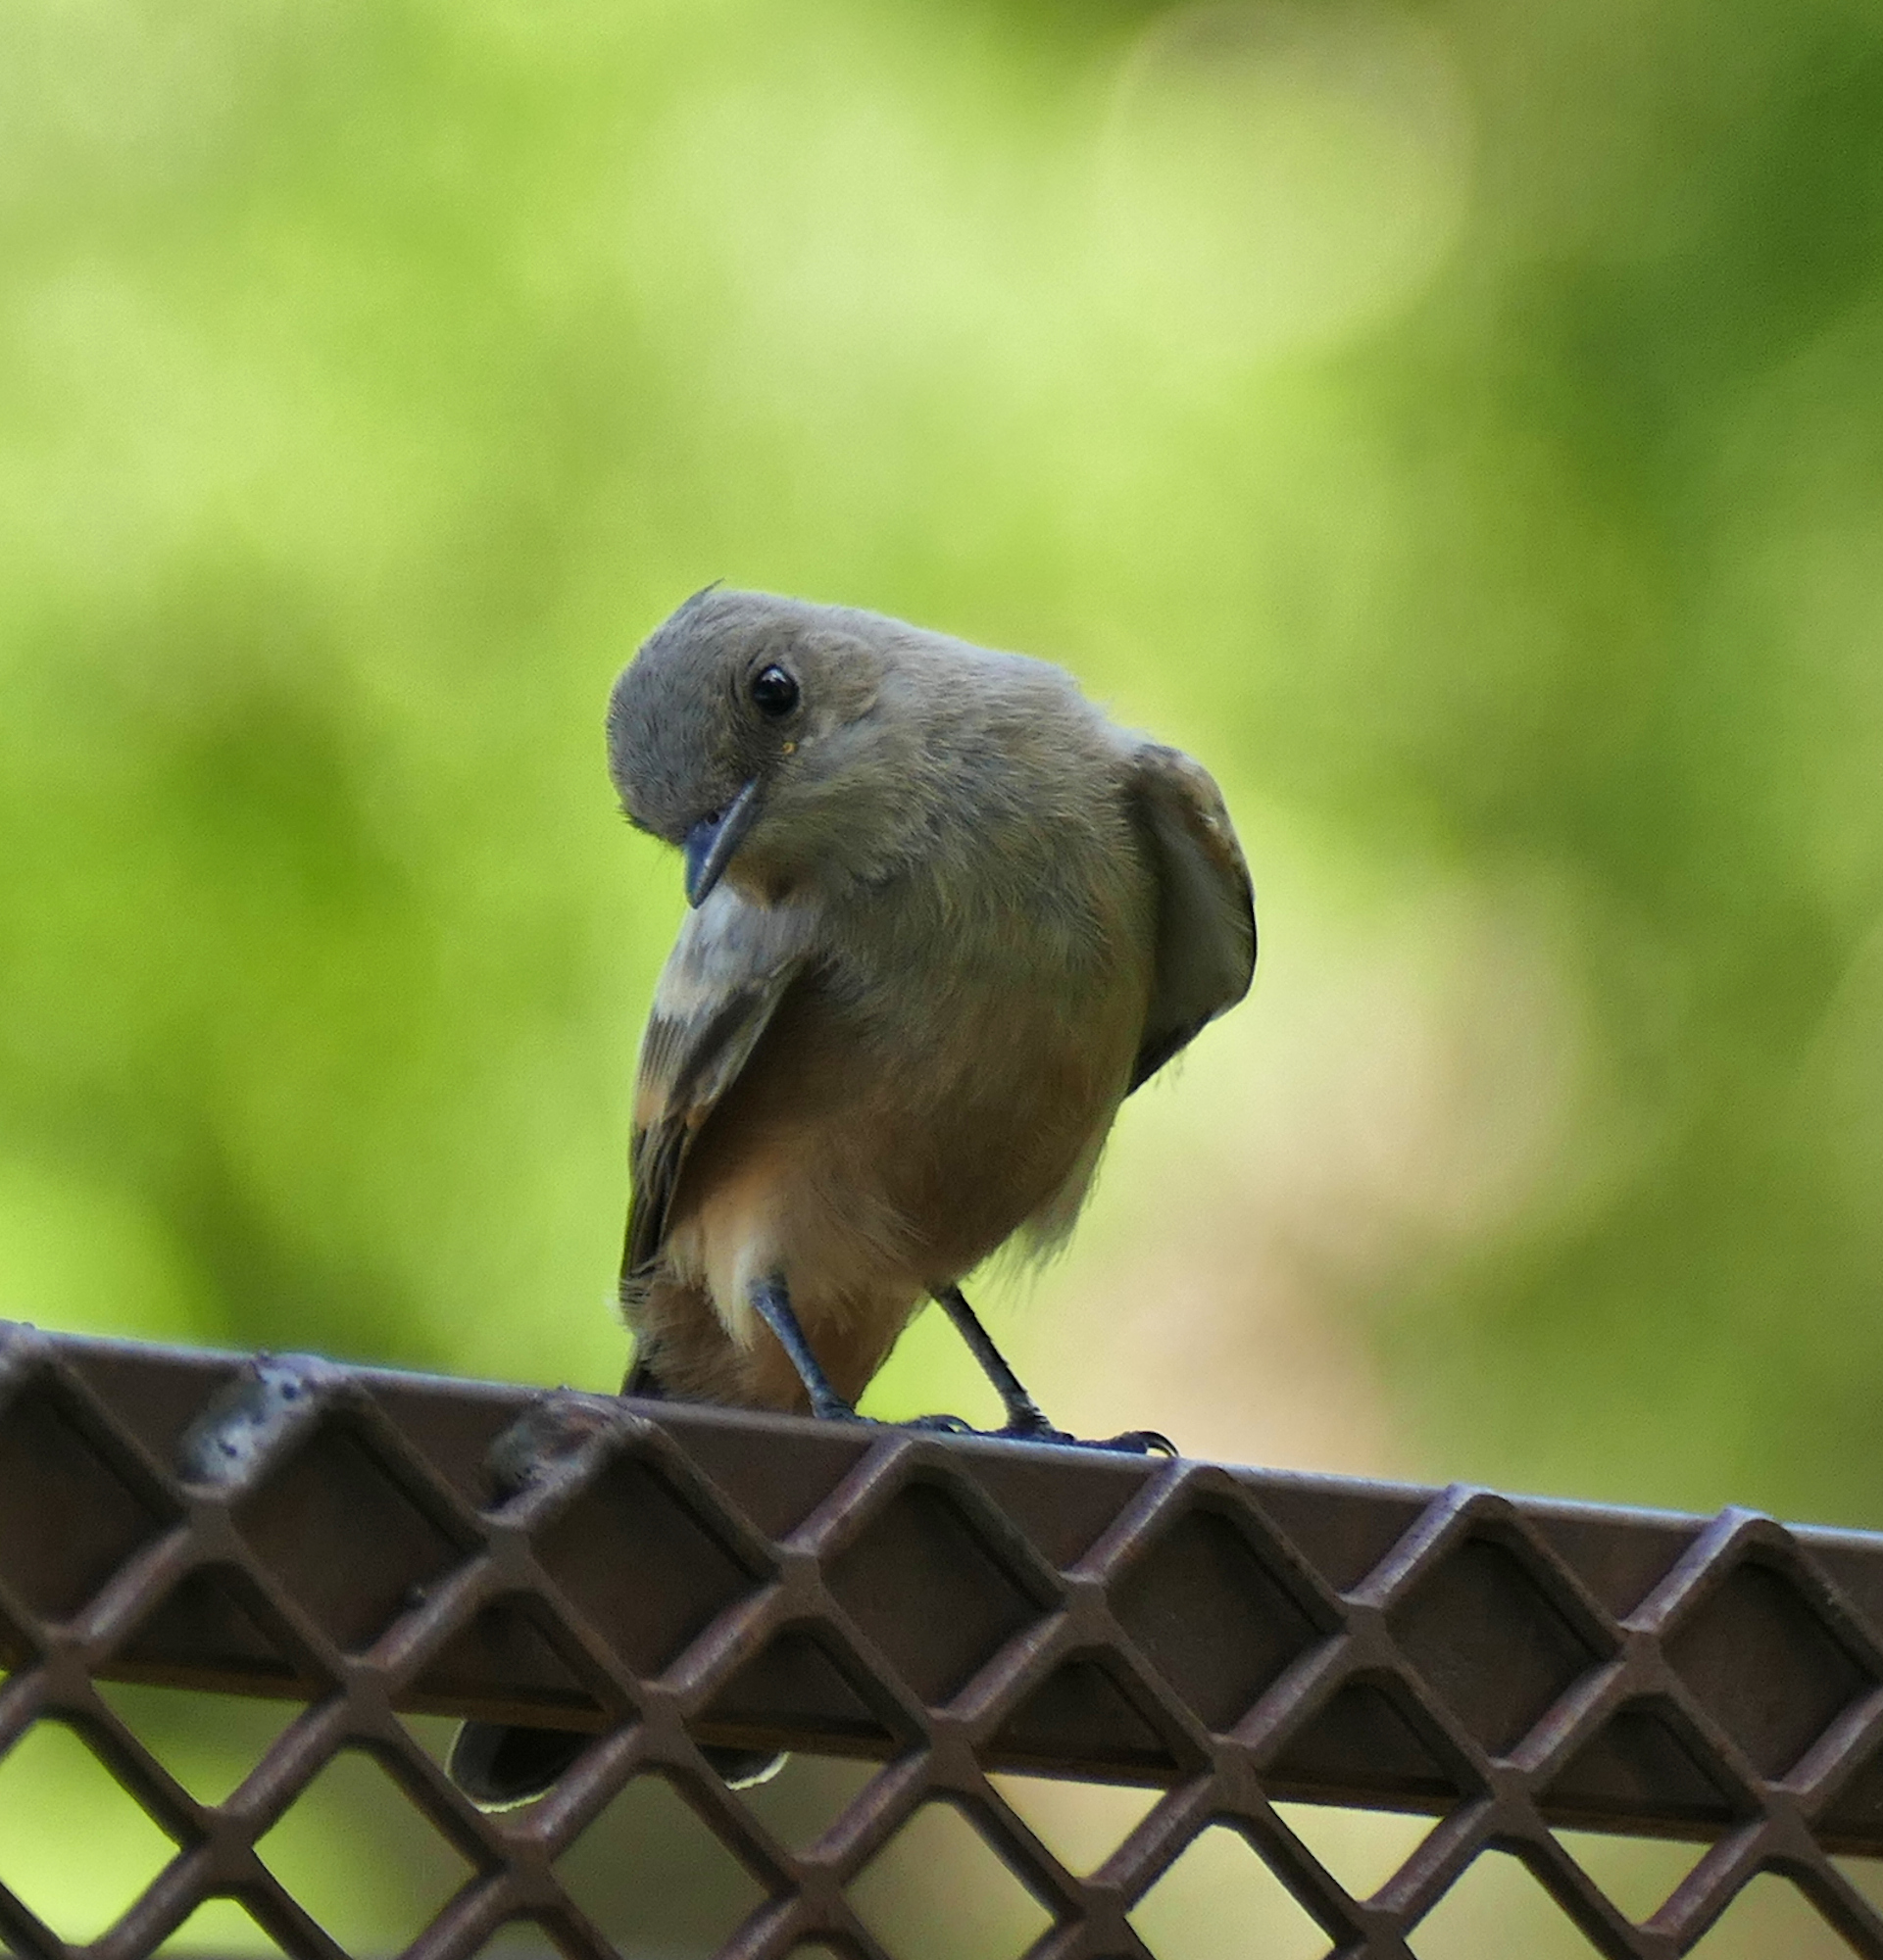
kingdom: Animalia
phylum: Chordata
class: Aves
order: Passeriformes
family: Tyrannidae
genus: Sayornis
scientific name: Sayornis saya
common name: Say's phoebe
